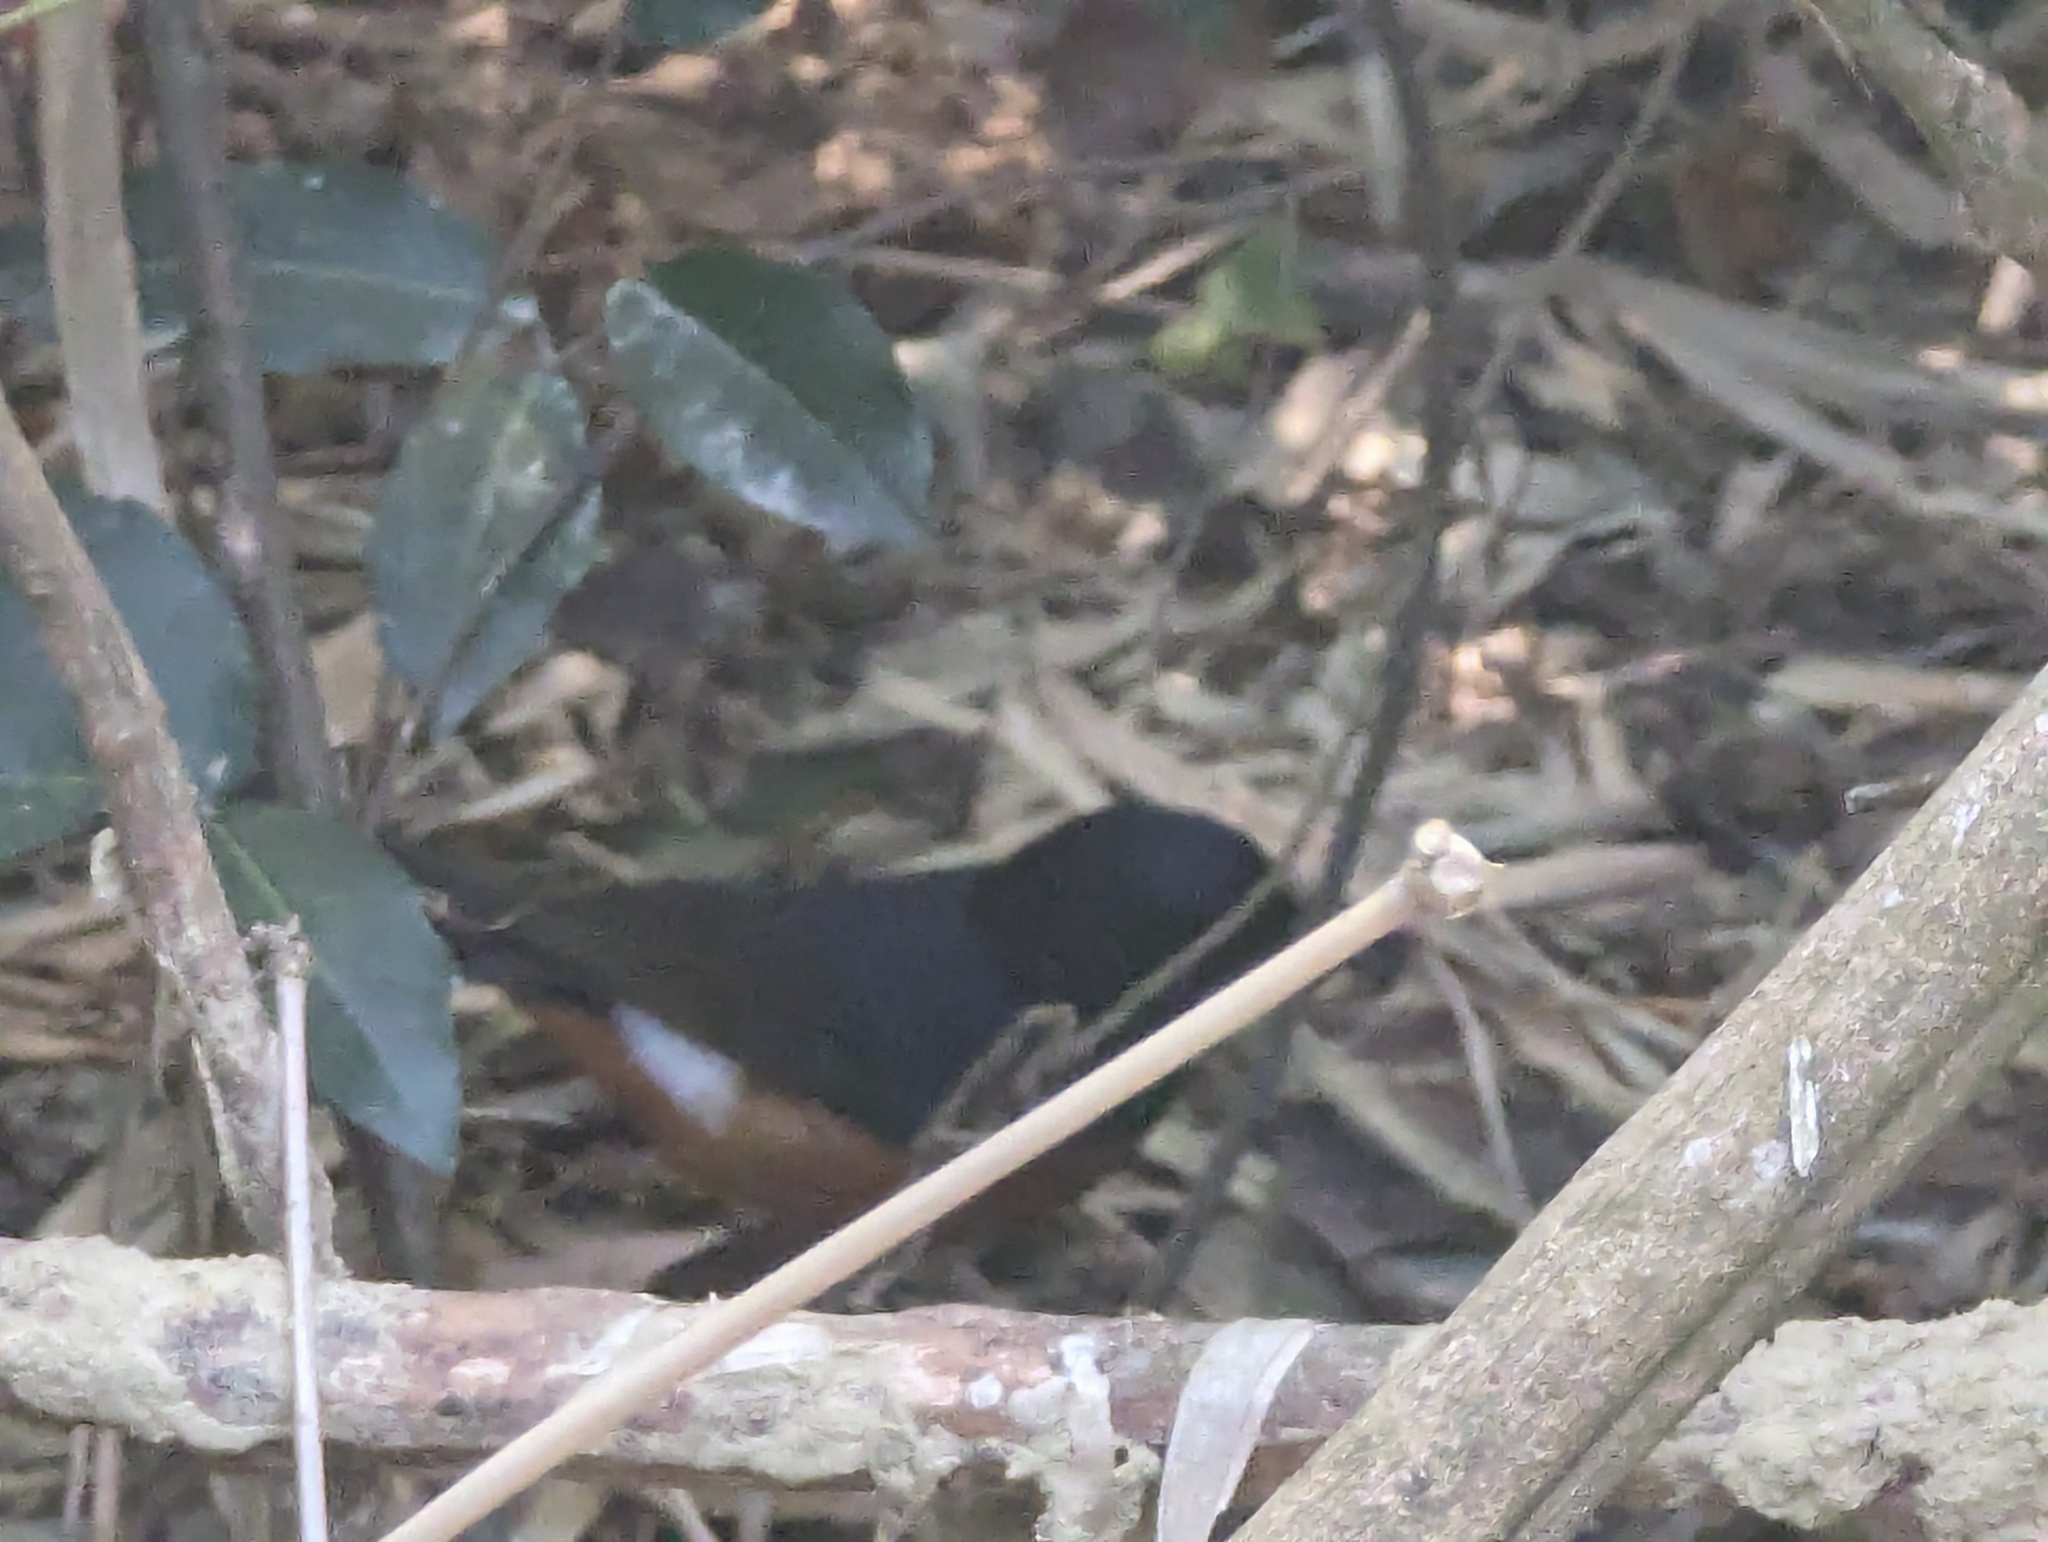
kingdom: Animalia
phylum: Chordata
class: Aves
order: Passeriformes
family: Muscicapidae
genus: Copsychus
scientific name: Copsychus malabaricus
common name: White-rumped shama
